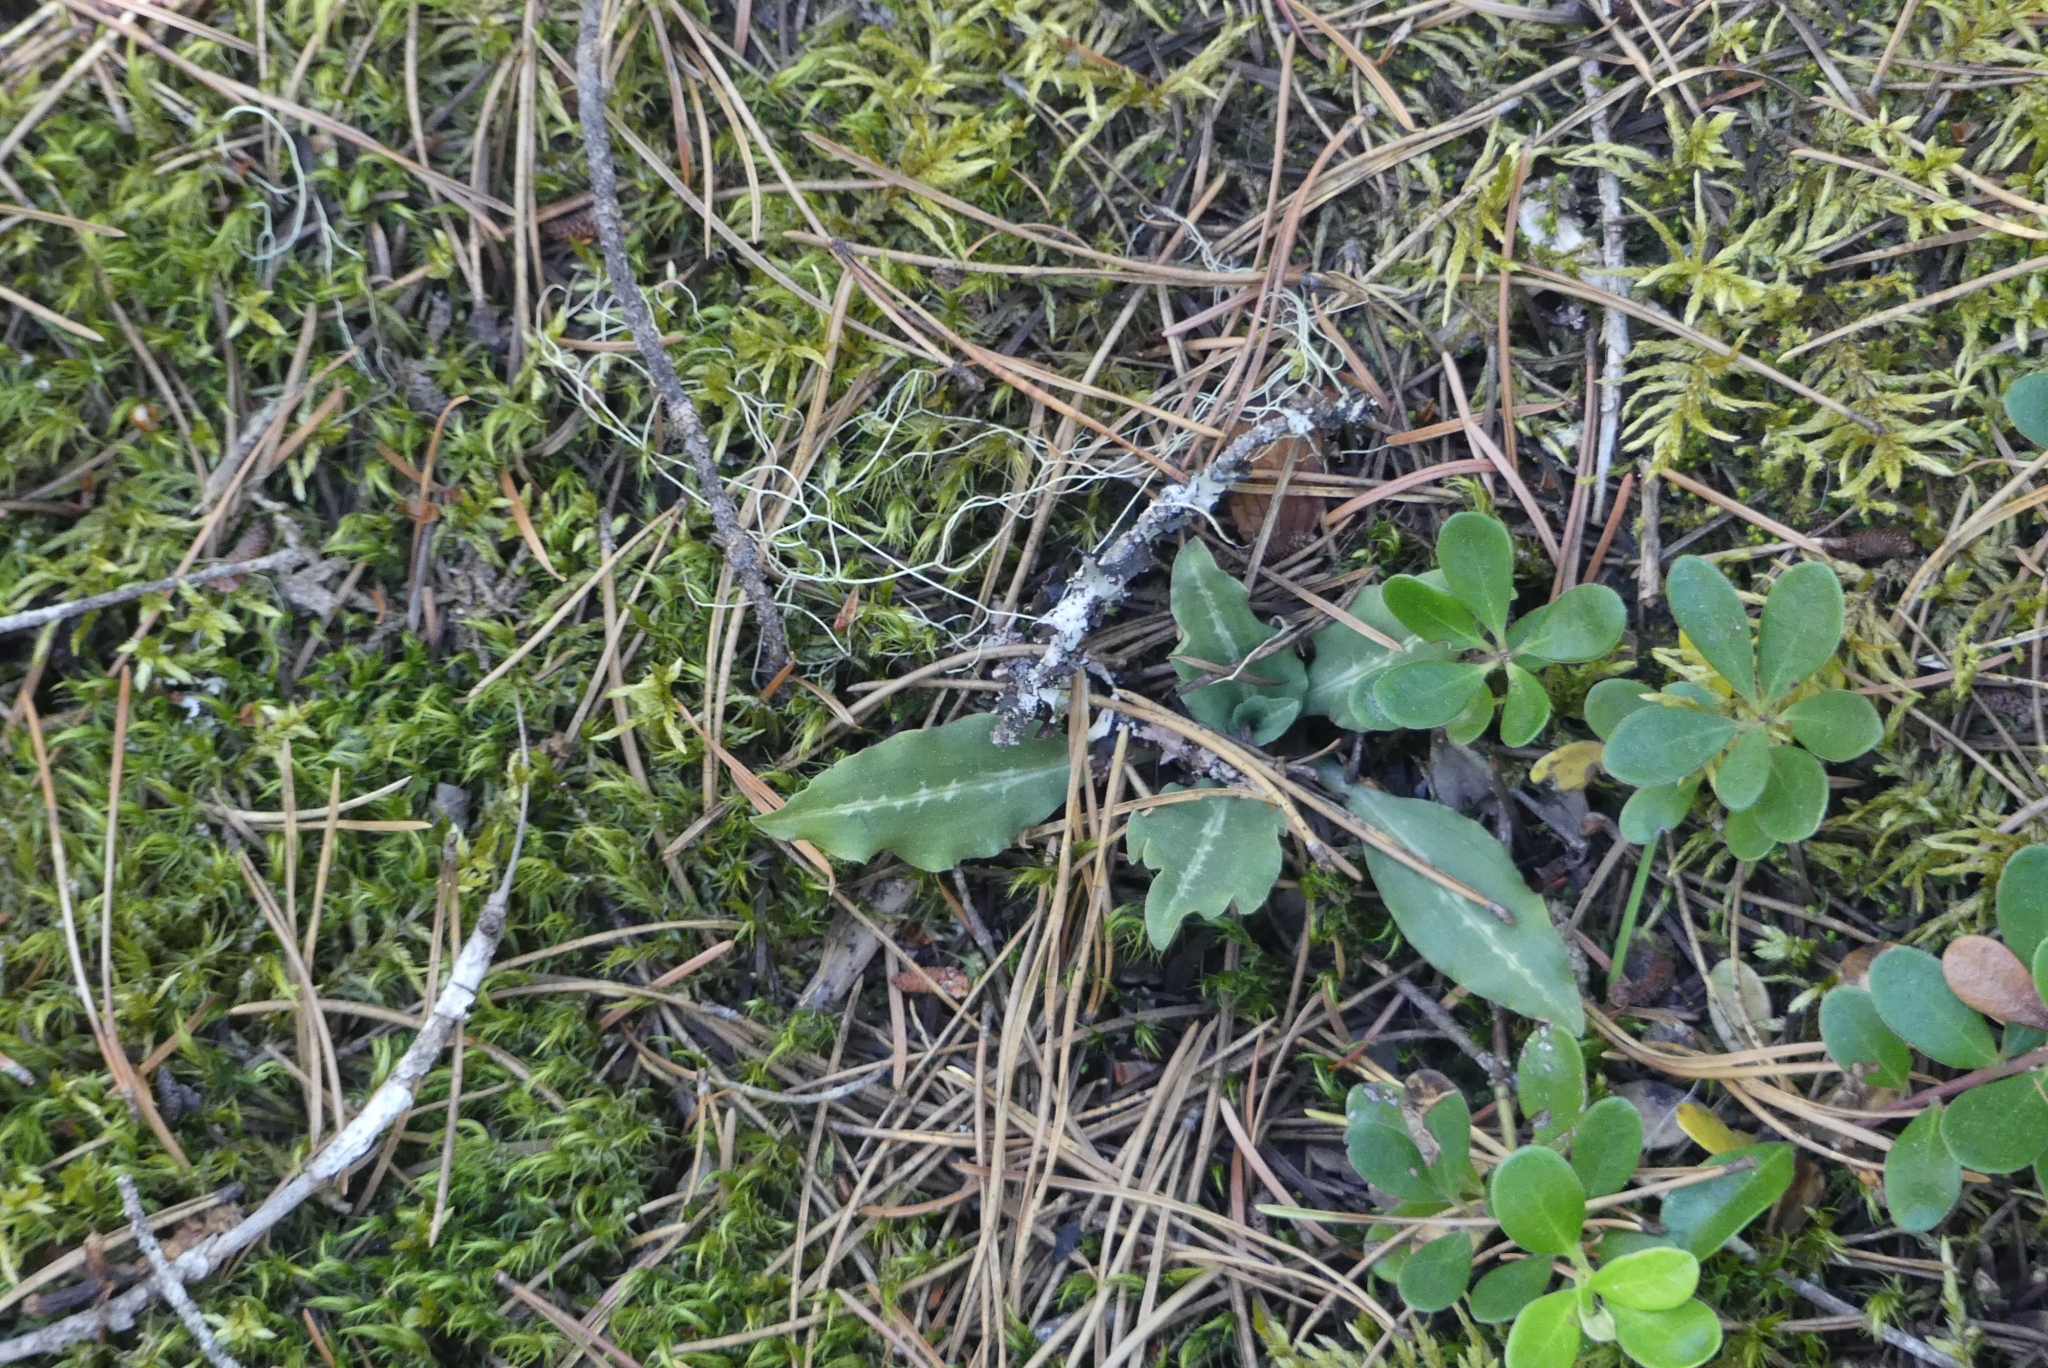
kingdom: Plantae
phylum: Tracheophyta
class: Liliopsida
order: Asparagales
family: Orchidaceae
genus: Goodyera
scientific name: Goodyera oblongifolia
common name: Giant rattlesnake-plantain
